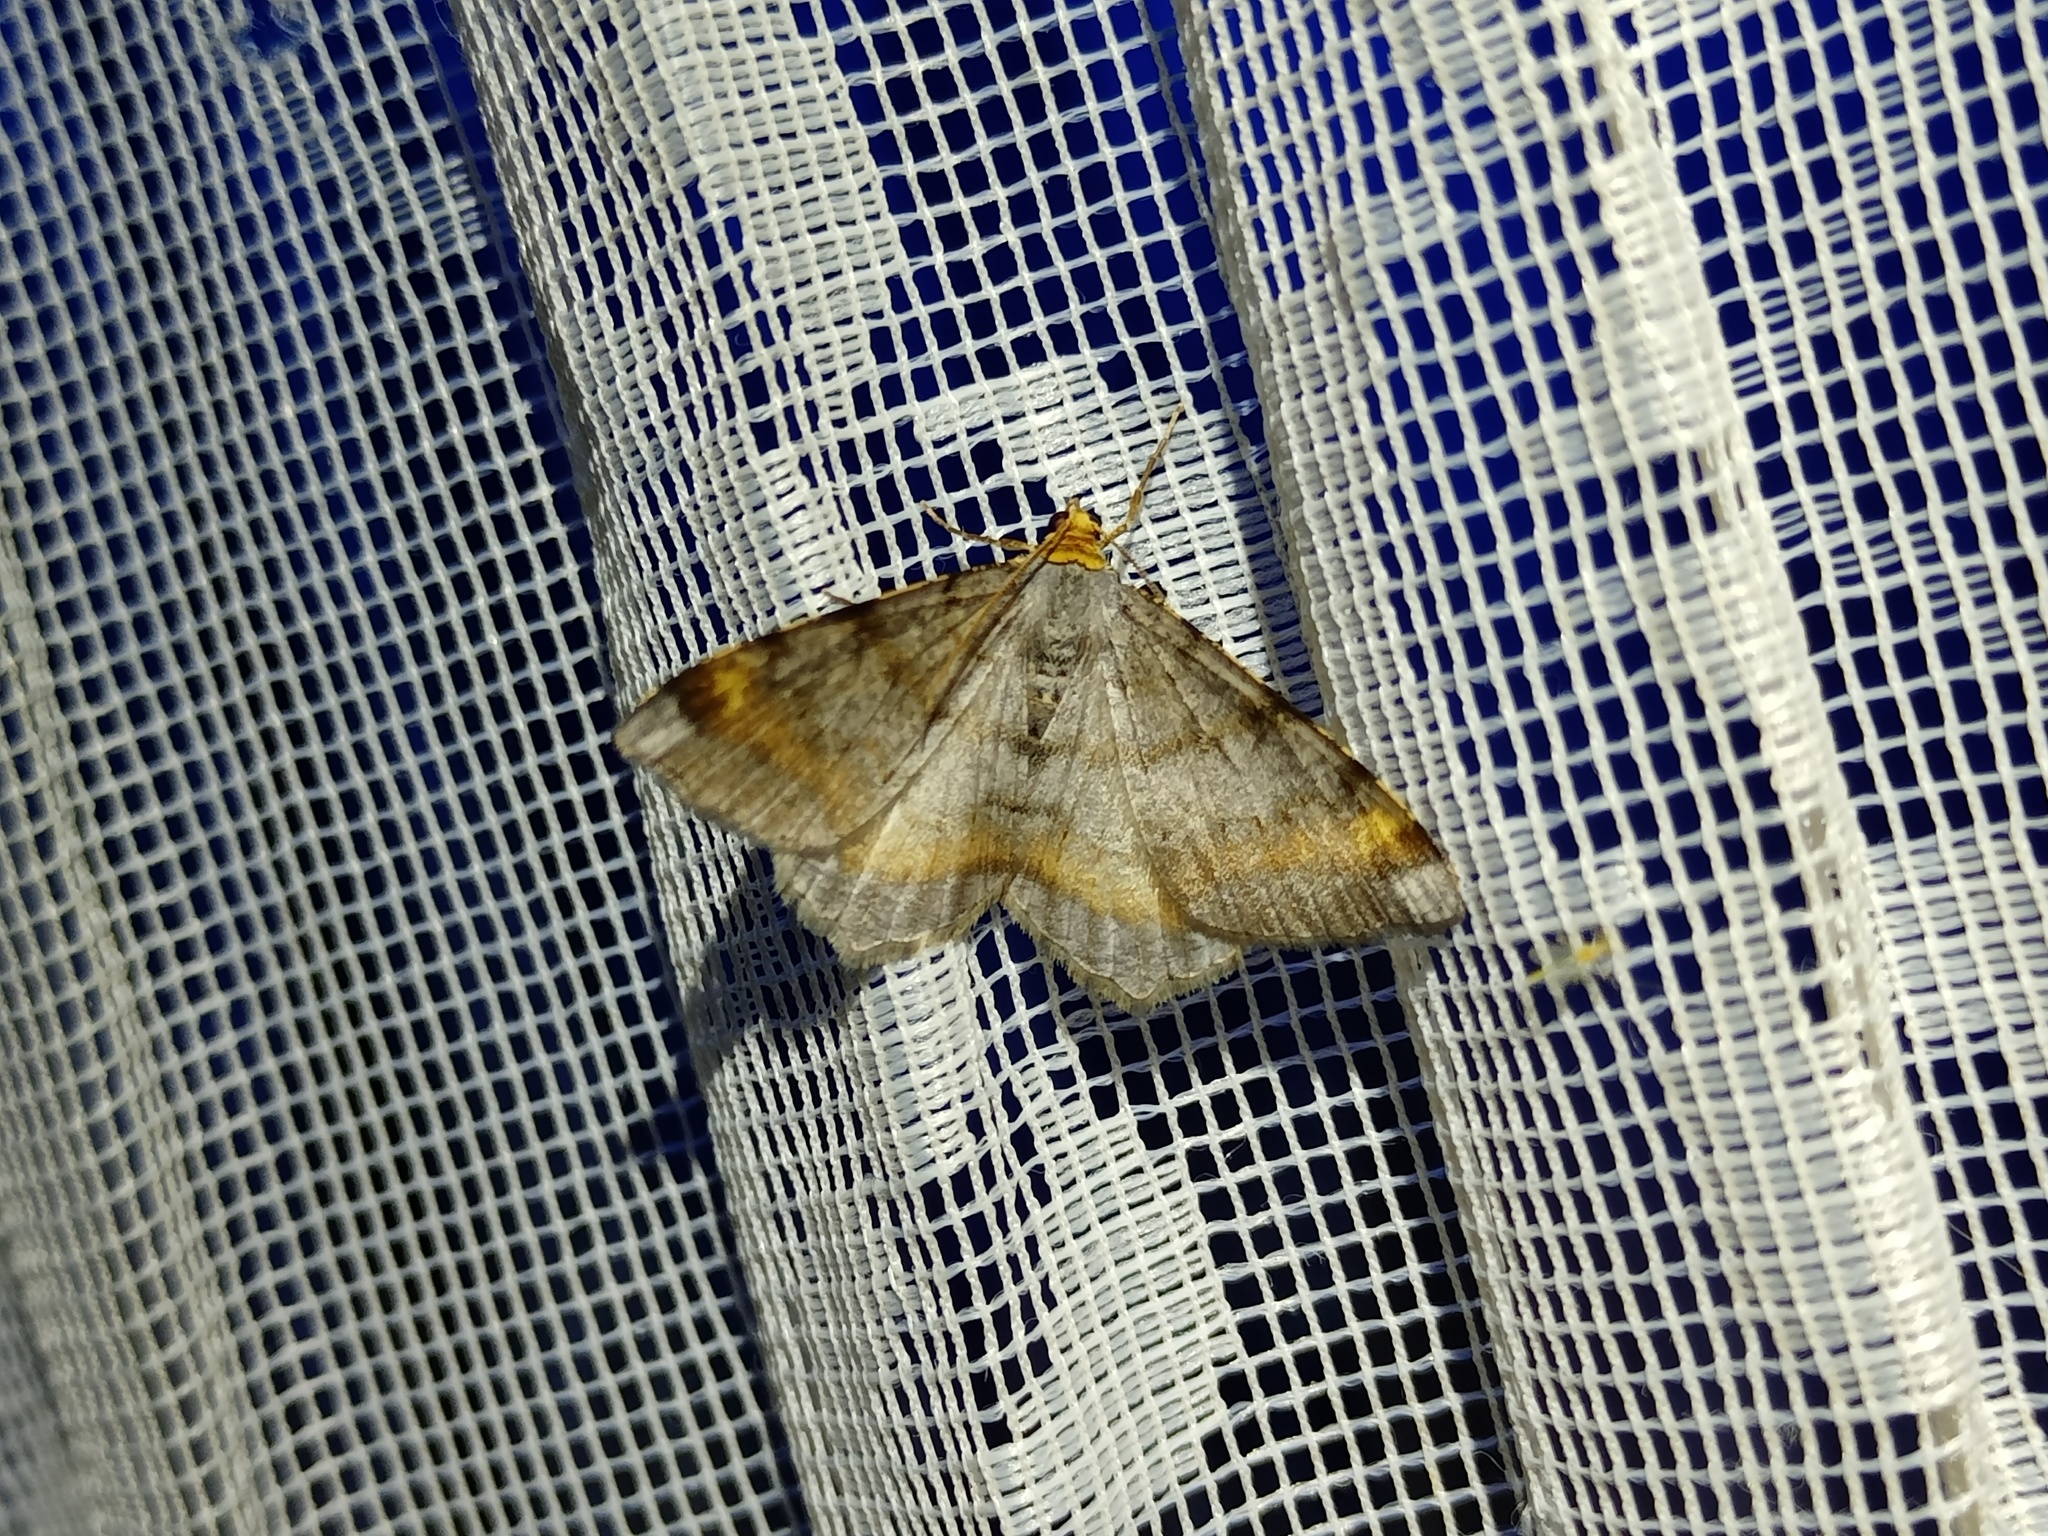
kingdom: Animalia
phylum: Arthropoda
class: Insecta
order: Lepidoptera
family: Geometridae
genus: Macaria
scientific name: Macaria liturata
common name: Tawny-barred angle
